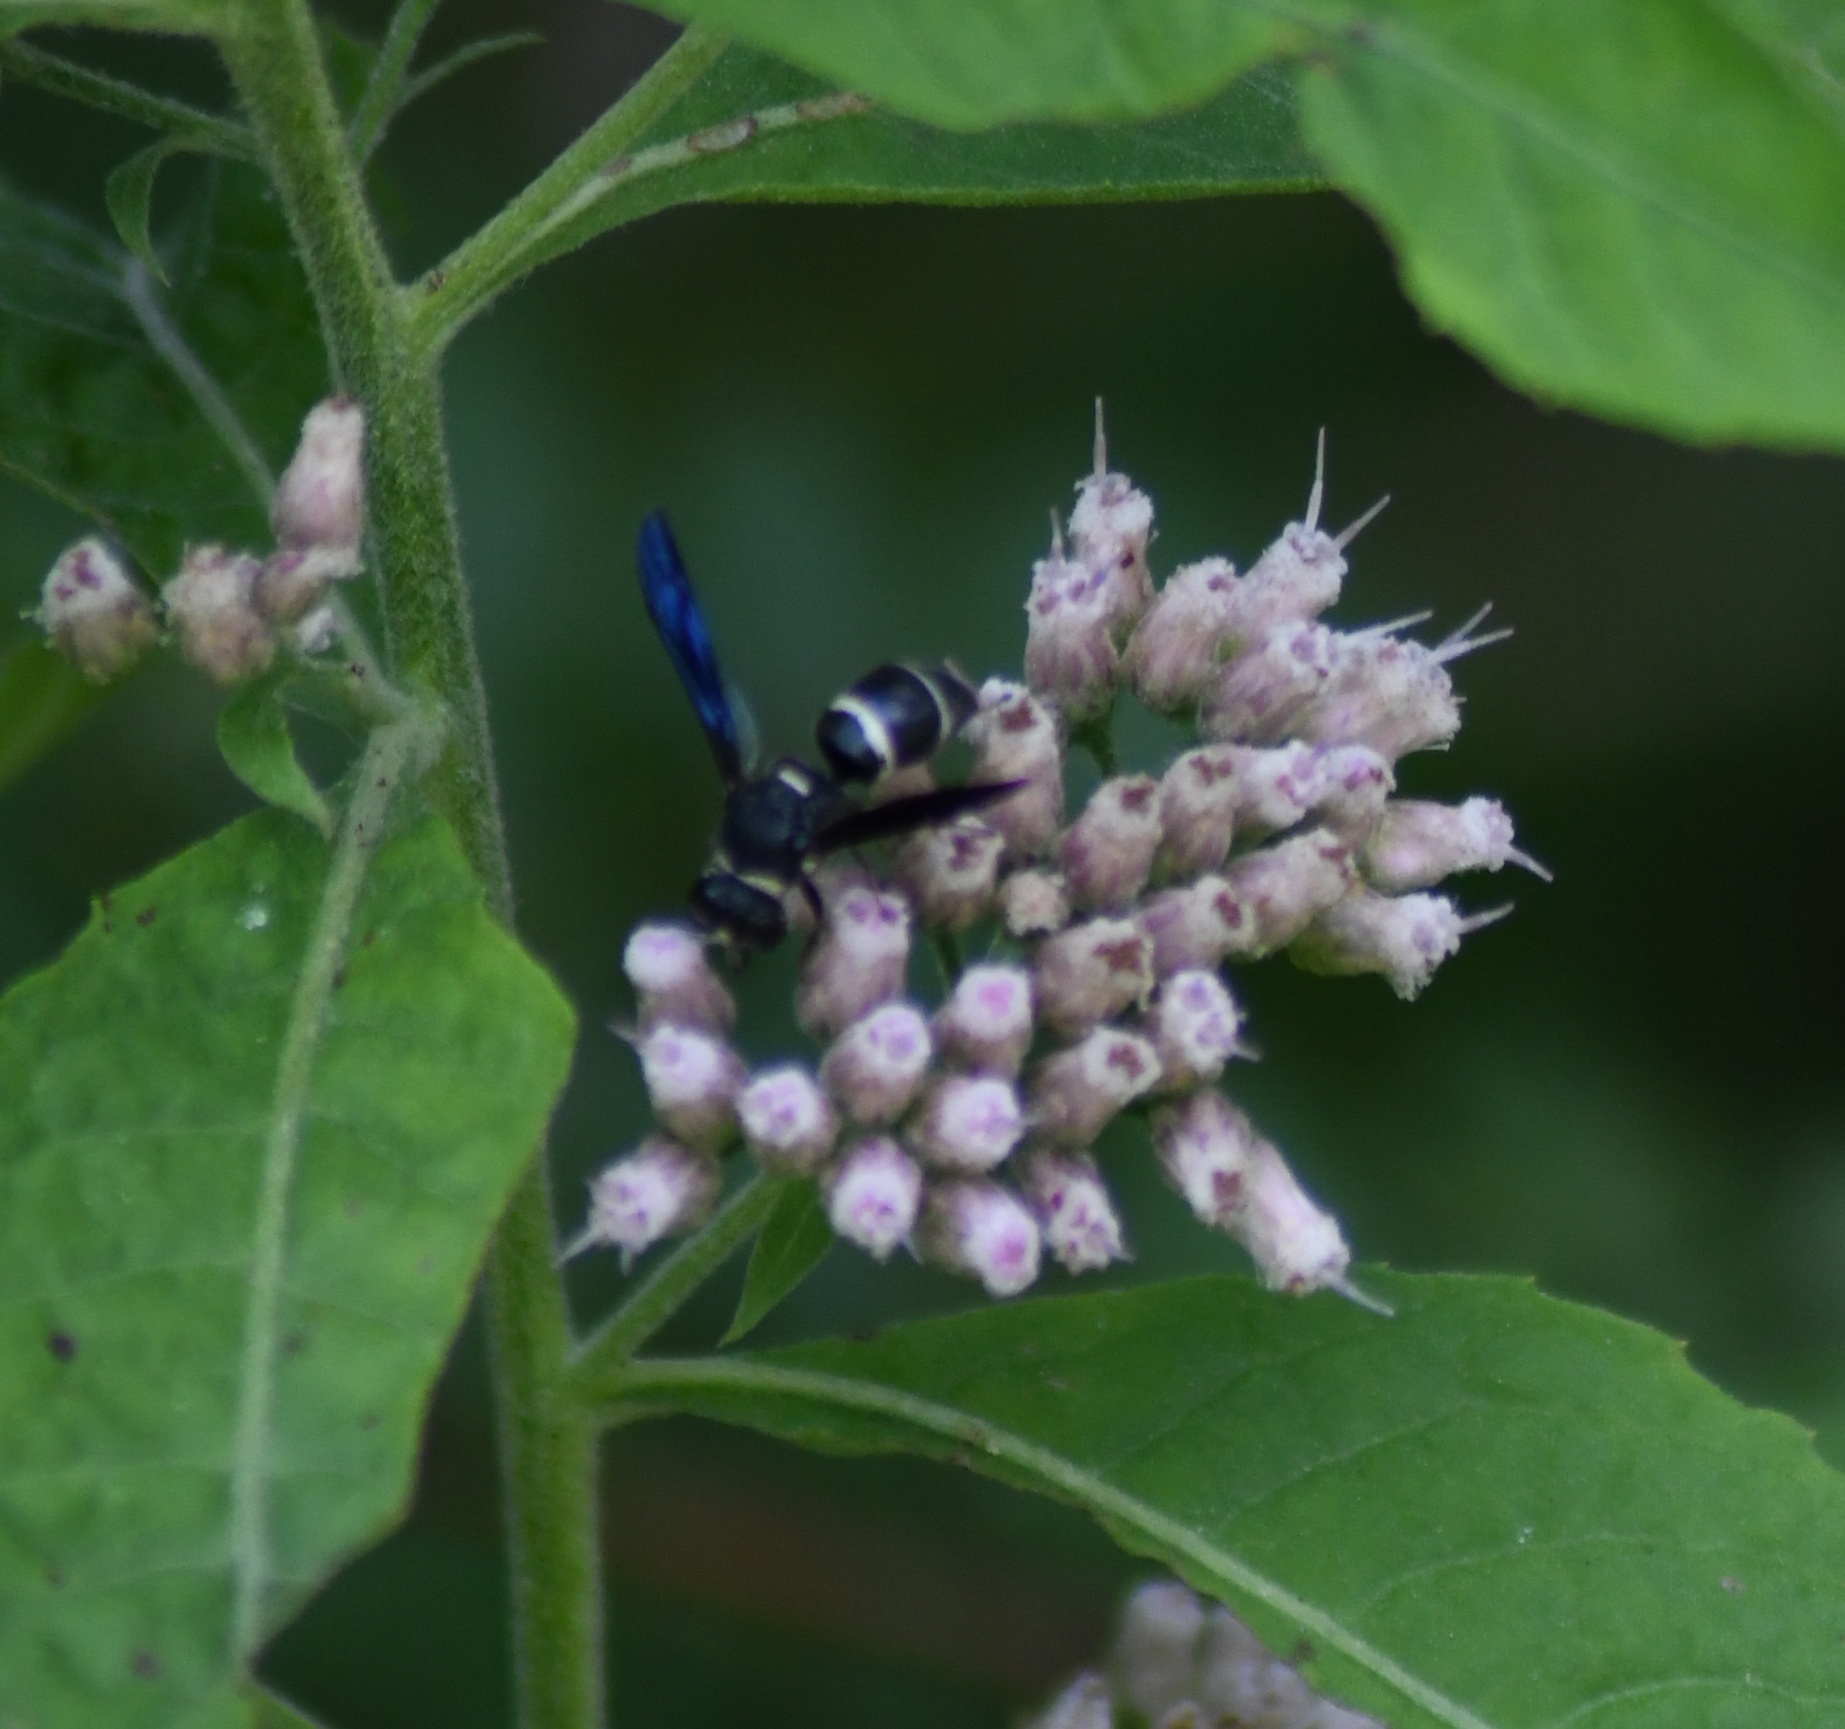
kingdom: Animalia
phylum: Arthropoda
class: Insecta
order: Hymenoptera
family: Eumenidae
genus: Euodynerus
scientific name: Euodynerus megaera
